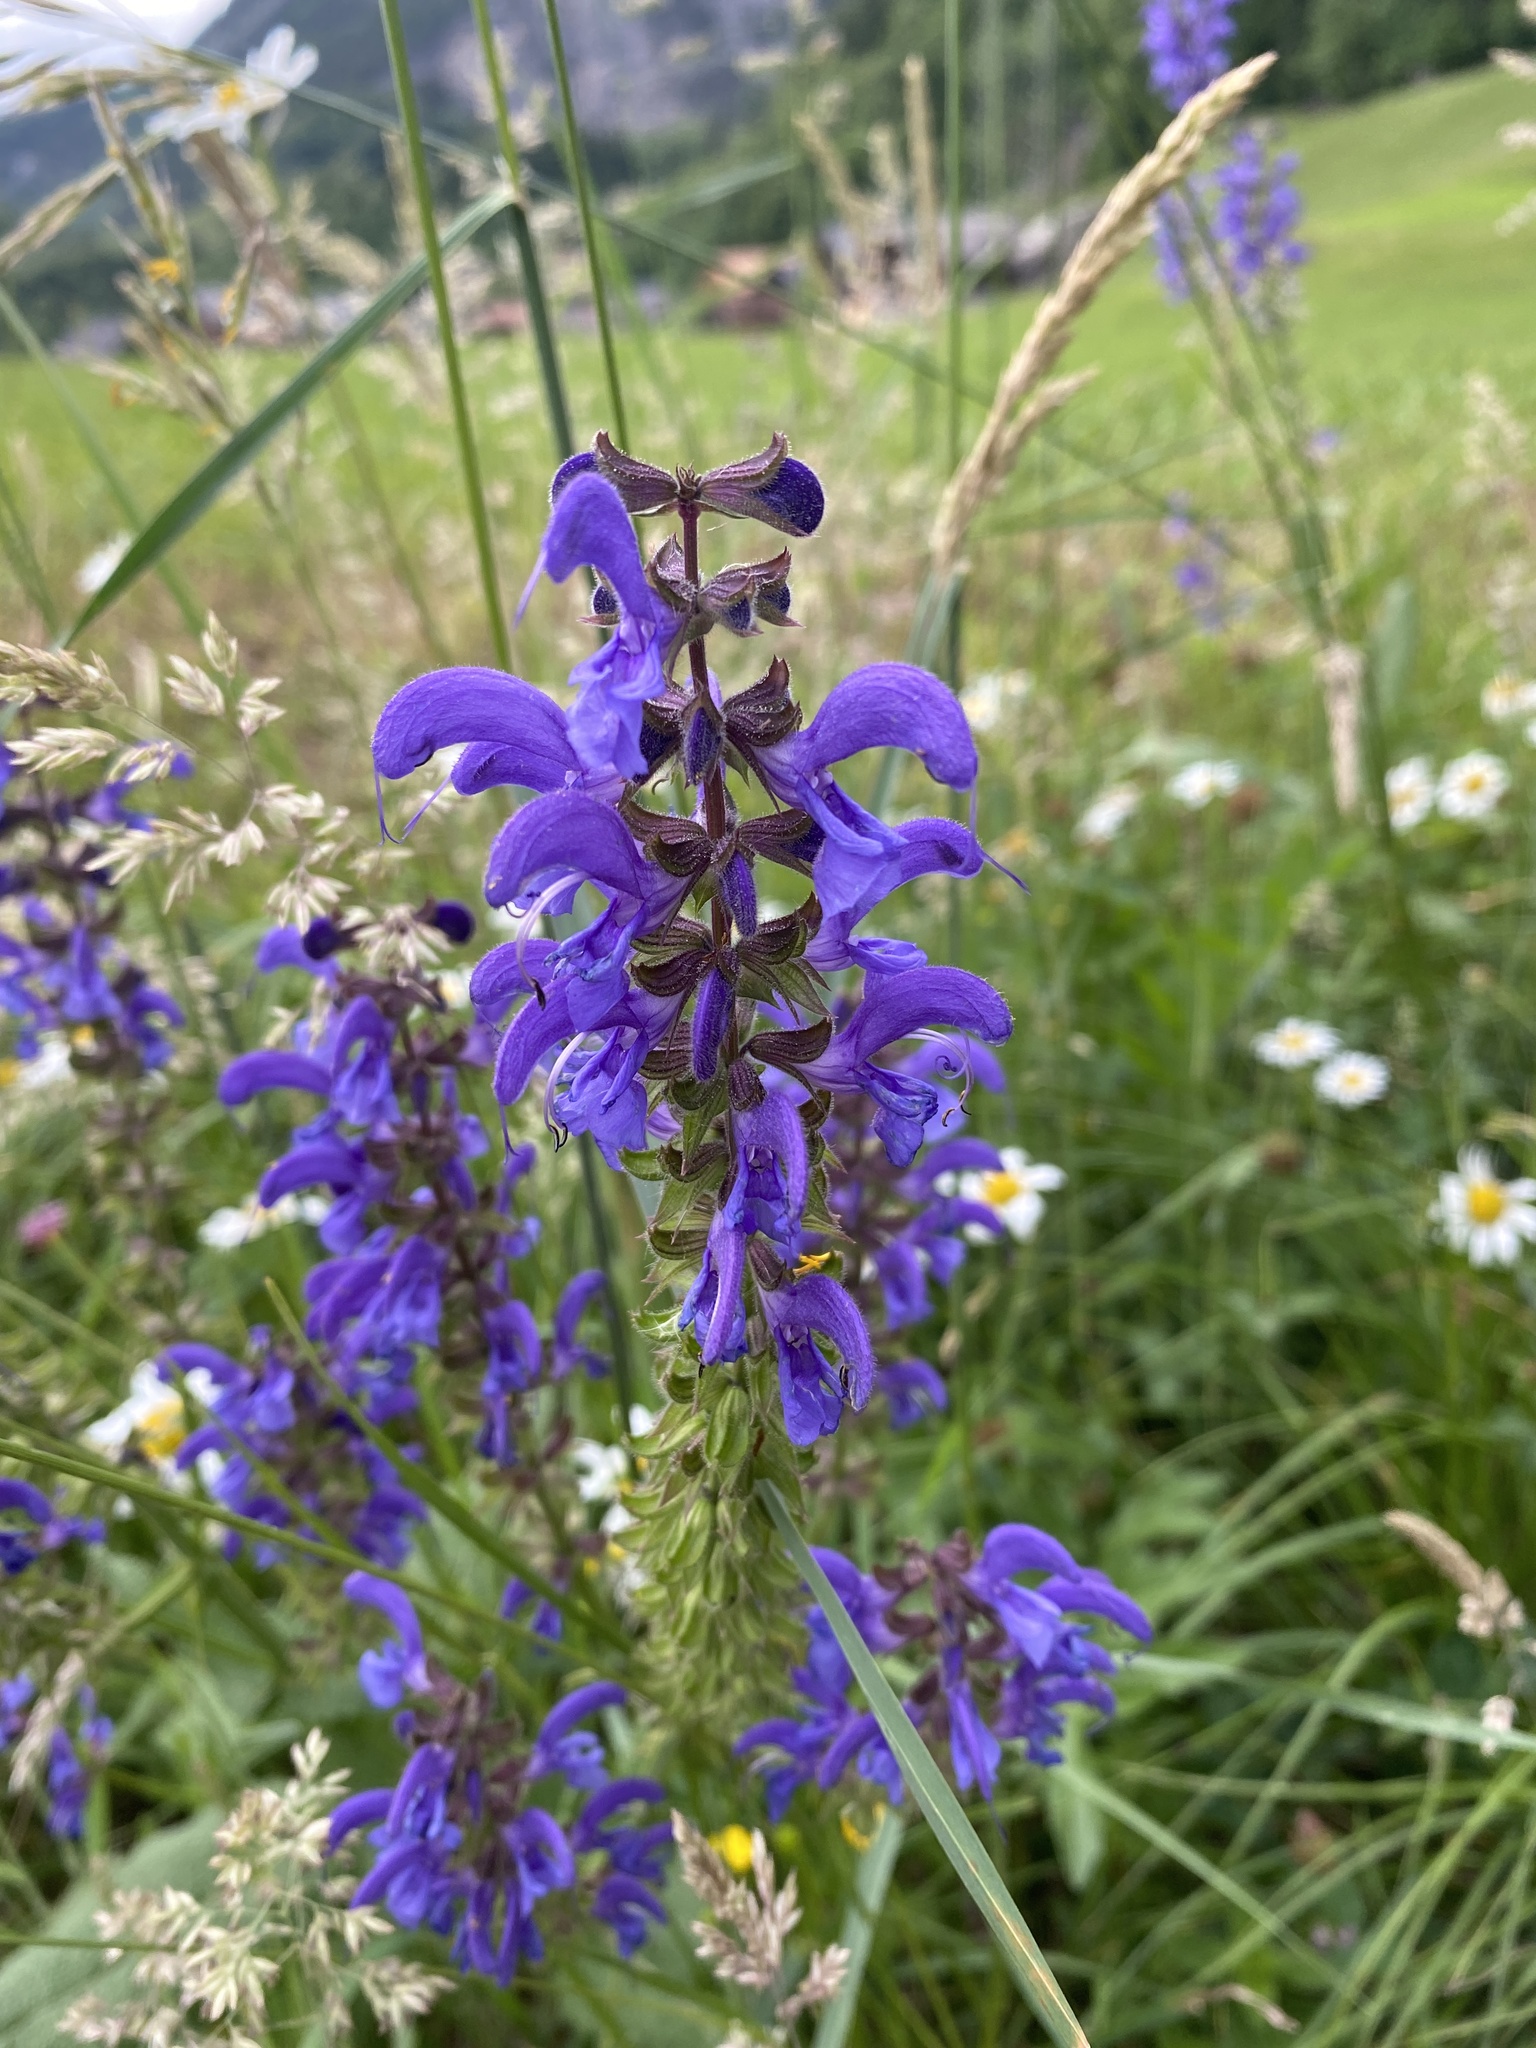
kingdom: Plantae
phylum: Tracheophyta
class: Magnoliopsida
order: Lamiales
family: Lamiaceae
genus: Salvia
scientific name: Salvia pratensis
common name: Meadow sage
